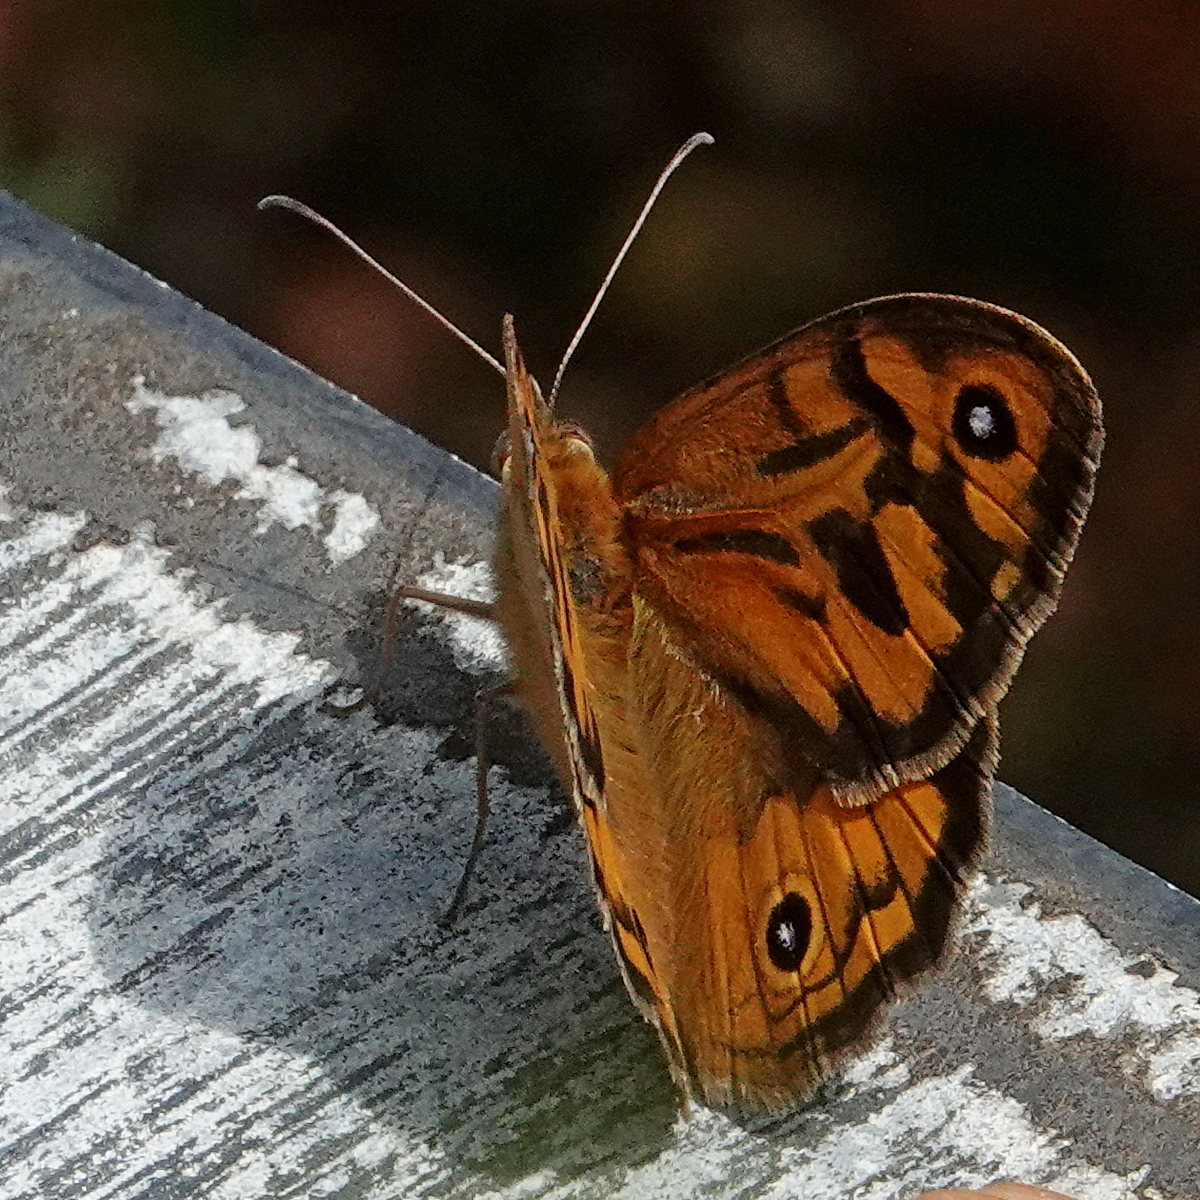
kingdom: Animalia
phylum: Arthropoda
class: Insecta
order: Lepidoptera
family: Nymphalidae
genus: Heteronympha
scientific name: Heteronympha merope
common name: Common brown
